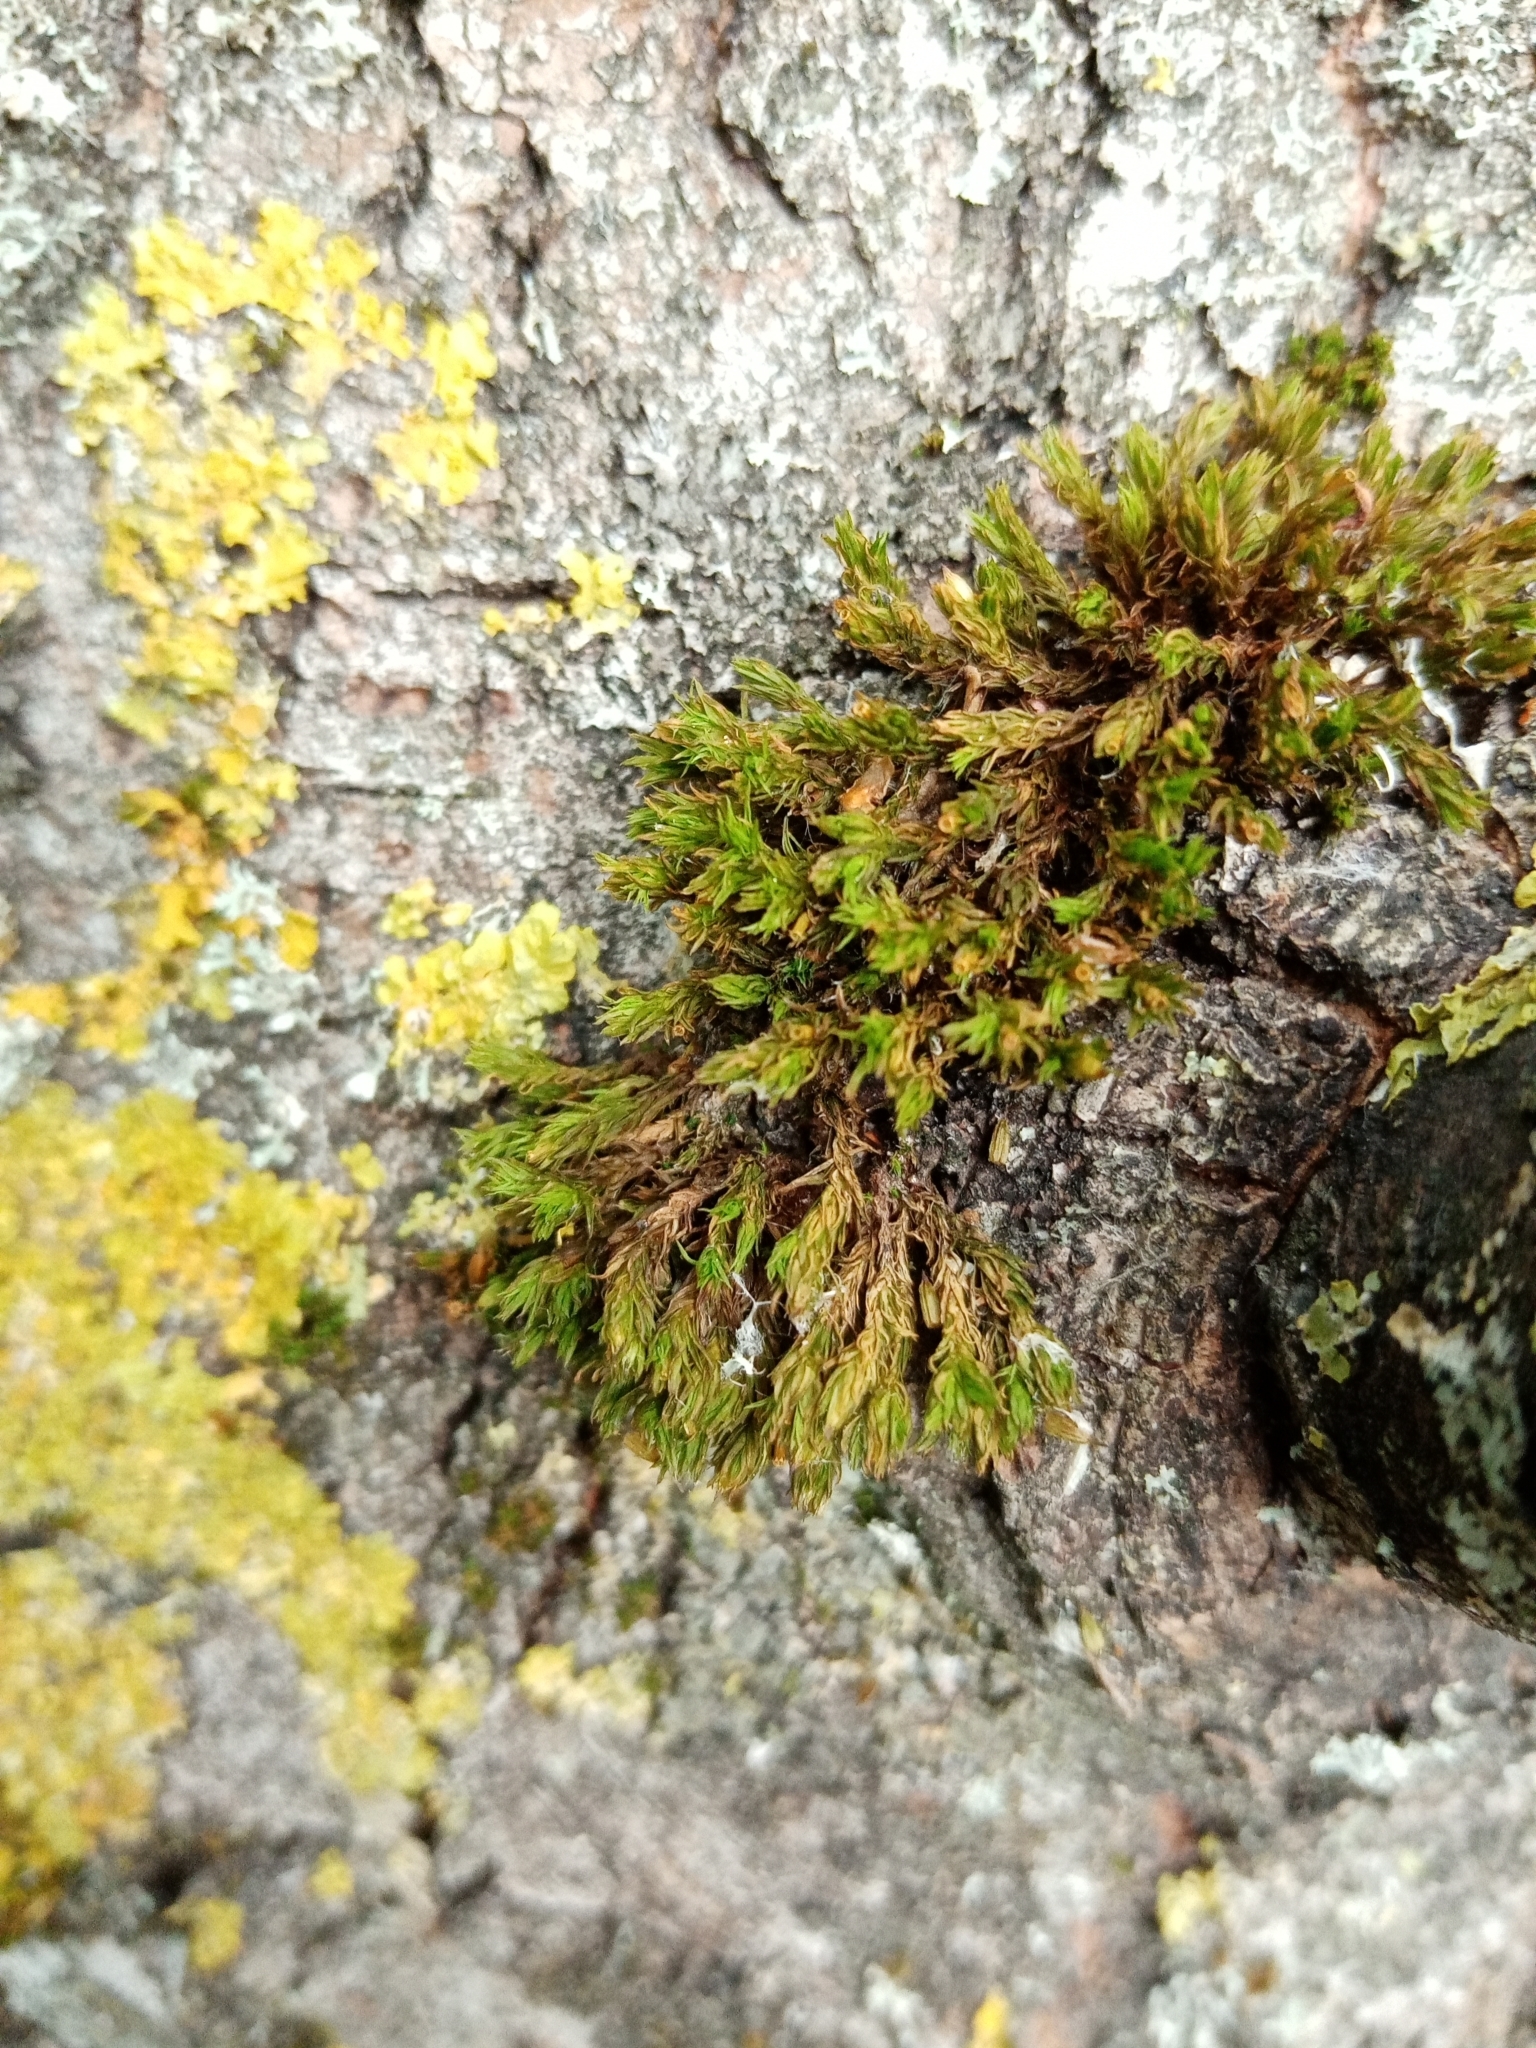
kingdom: Plantae
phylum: Bryophyta
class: Bryopsida
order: Orthotrichales
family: Orthotrichaceae
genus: Lewinskya
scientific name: Lewinskya affinis
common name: Wood bristle-moss
